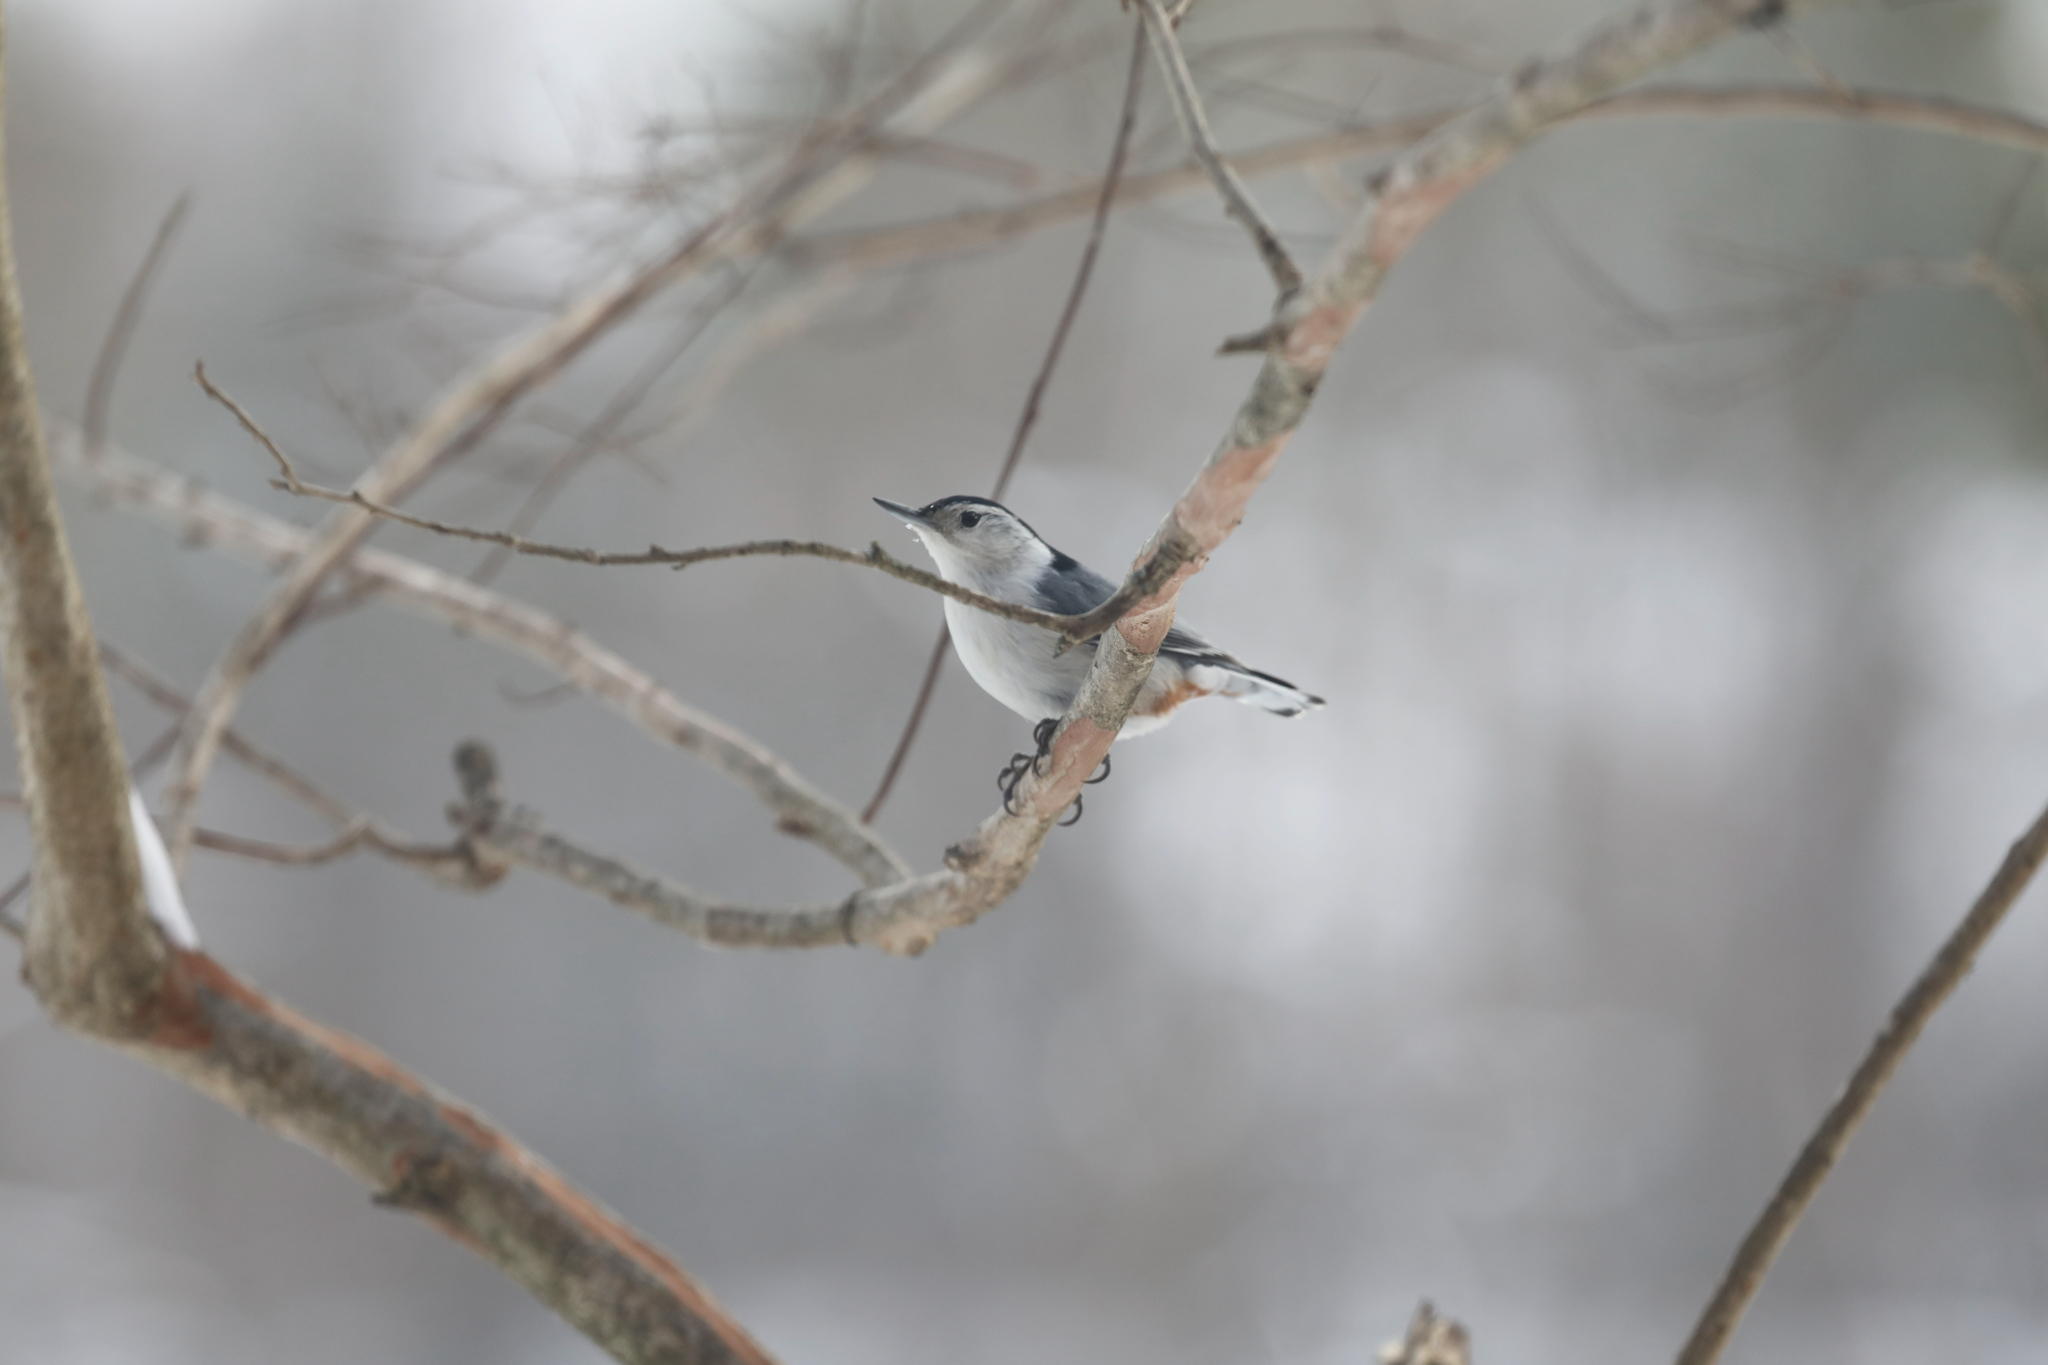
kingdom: Animalia
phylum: Chordata
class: Aves
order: Passeriformes
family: Sittidae
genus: Sitta
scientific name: Sitta carolinensis
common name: White-breasted nuthatch
